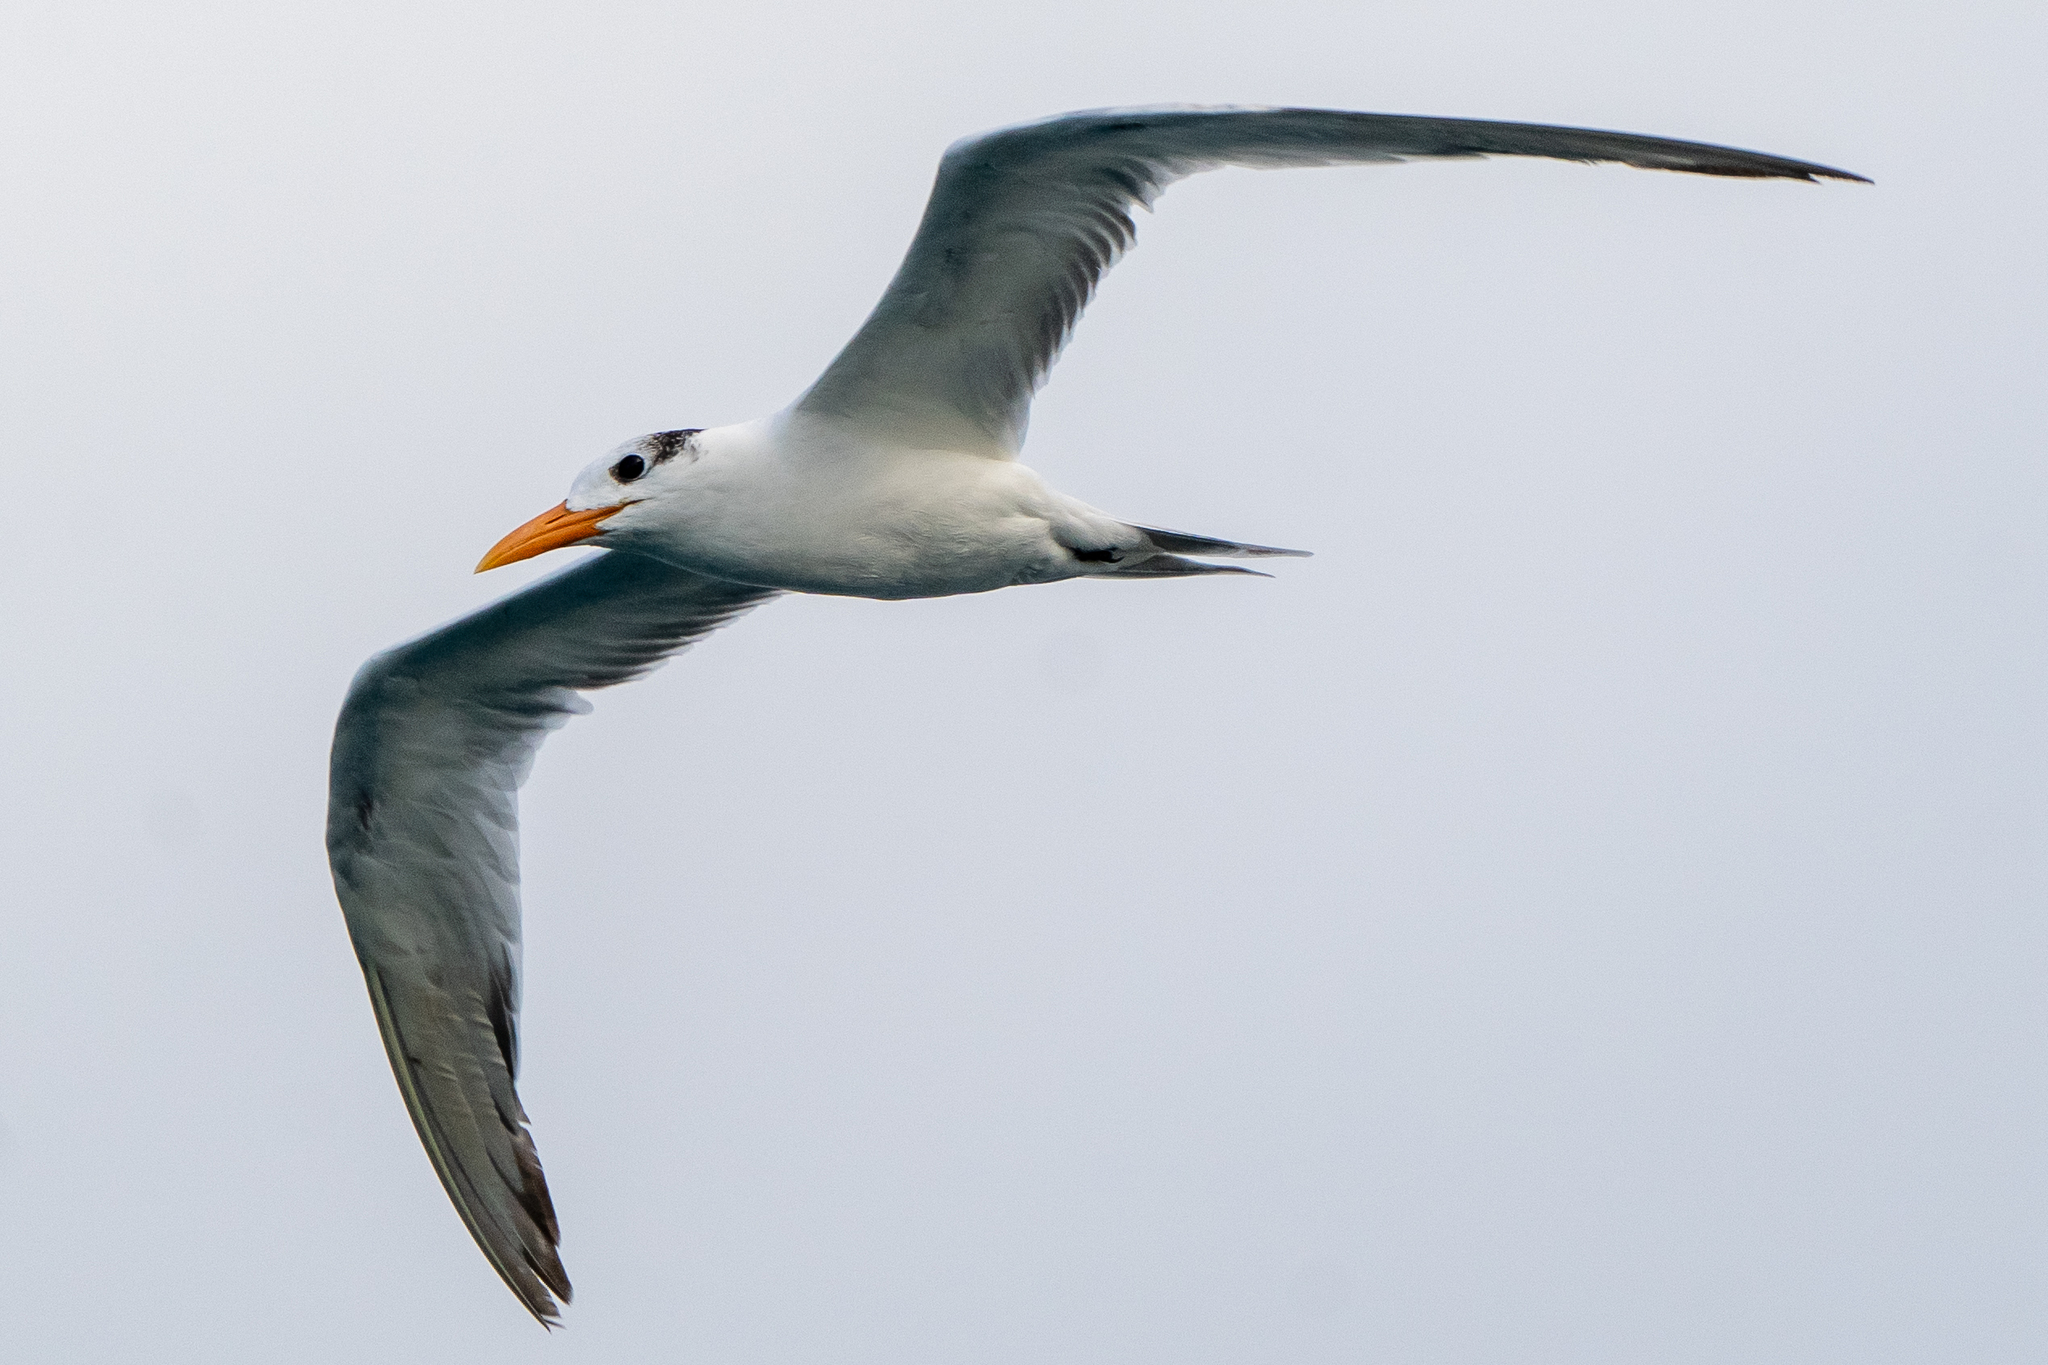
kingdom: Animalia
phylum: Chordata
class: Aves
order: Charadriiformes
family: Laridae
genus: Thalasseus
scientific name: Thalasseus maximus
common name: Royal tern
